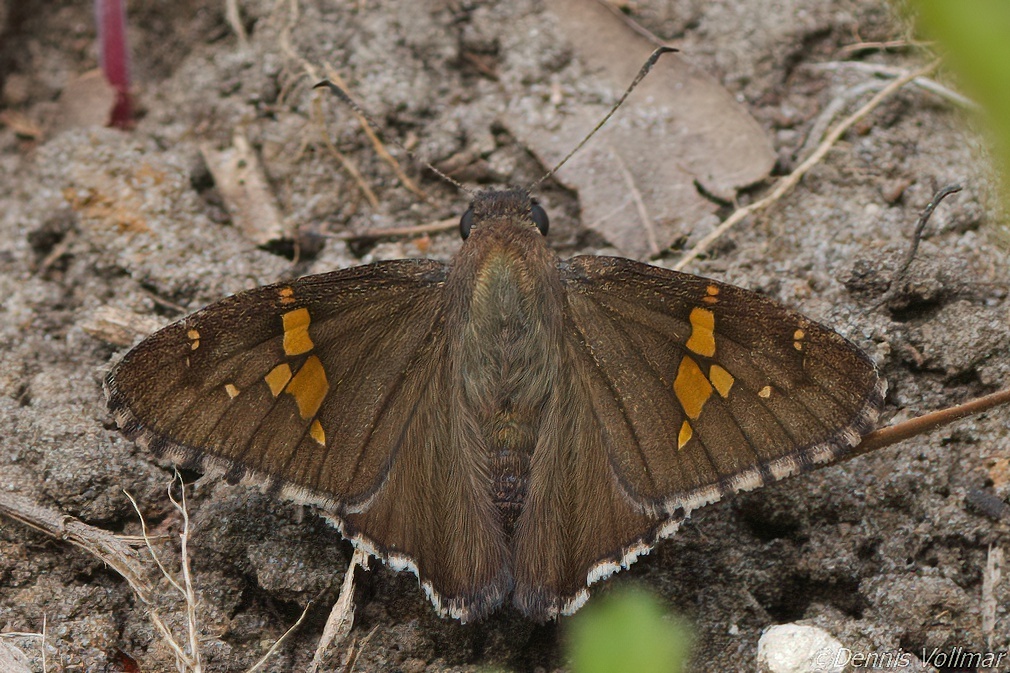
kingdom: Animalia
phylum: Arthropoda
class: Insecta
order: Lepidoptera
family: Hesperiidae
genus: Thorybes
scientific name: Thorybes lyciades
